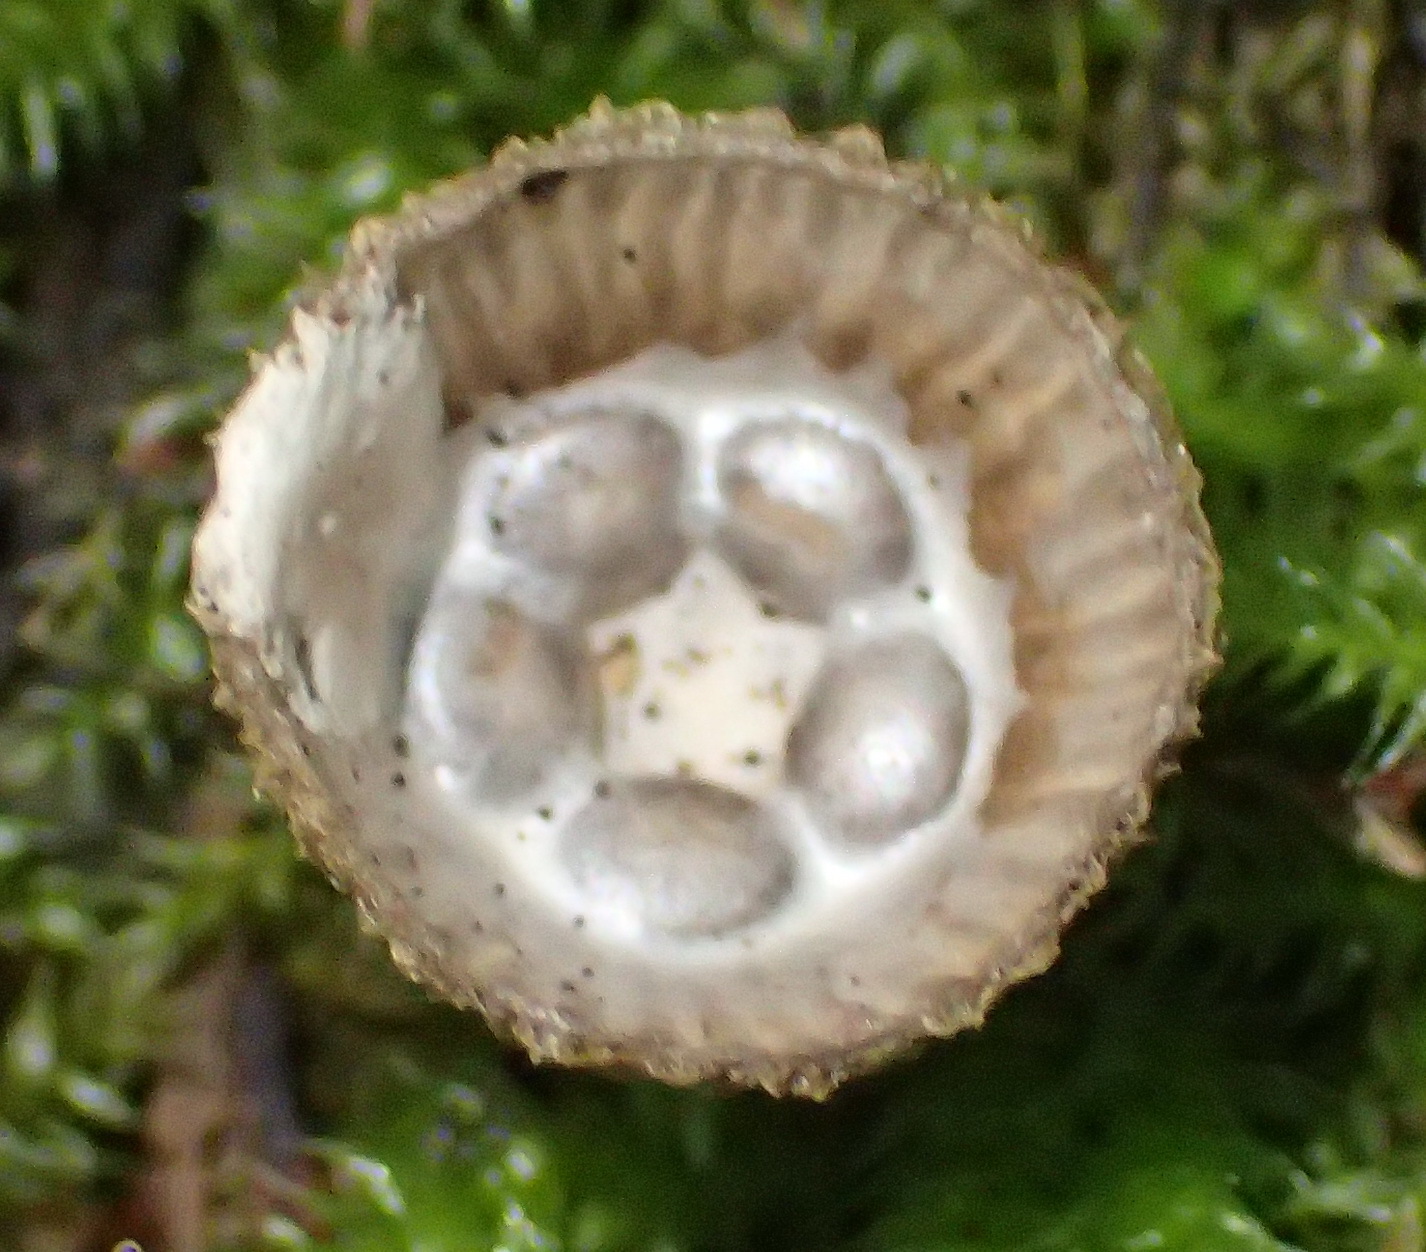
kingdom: Fungi
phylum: Basidiomycota
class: Agaricomycetes
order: Agaricales
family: Agaricaceae
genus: Cyathus
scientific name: Cyathus striatus
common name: Fluted bird's nest
